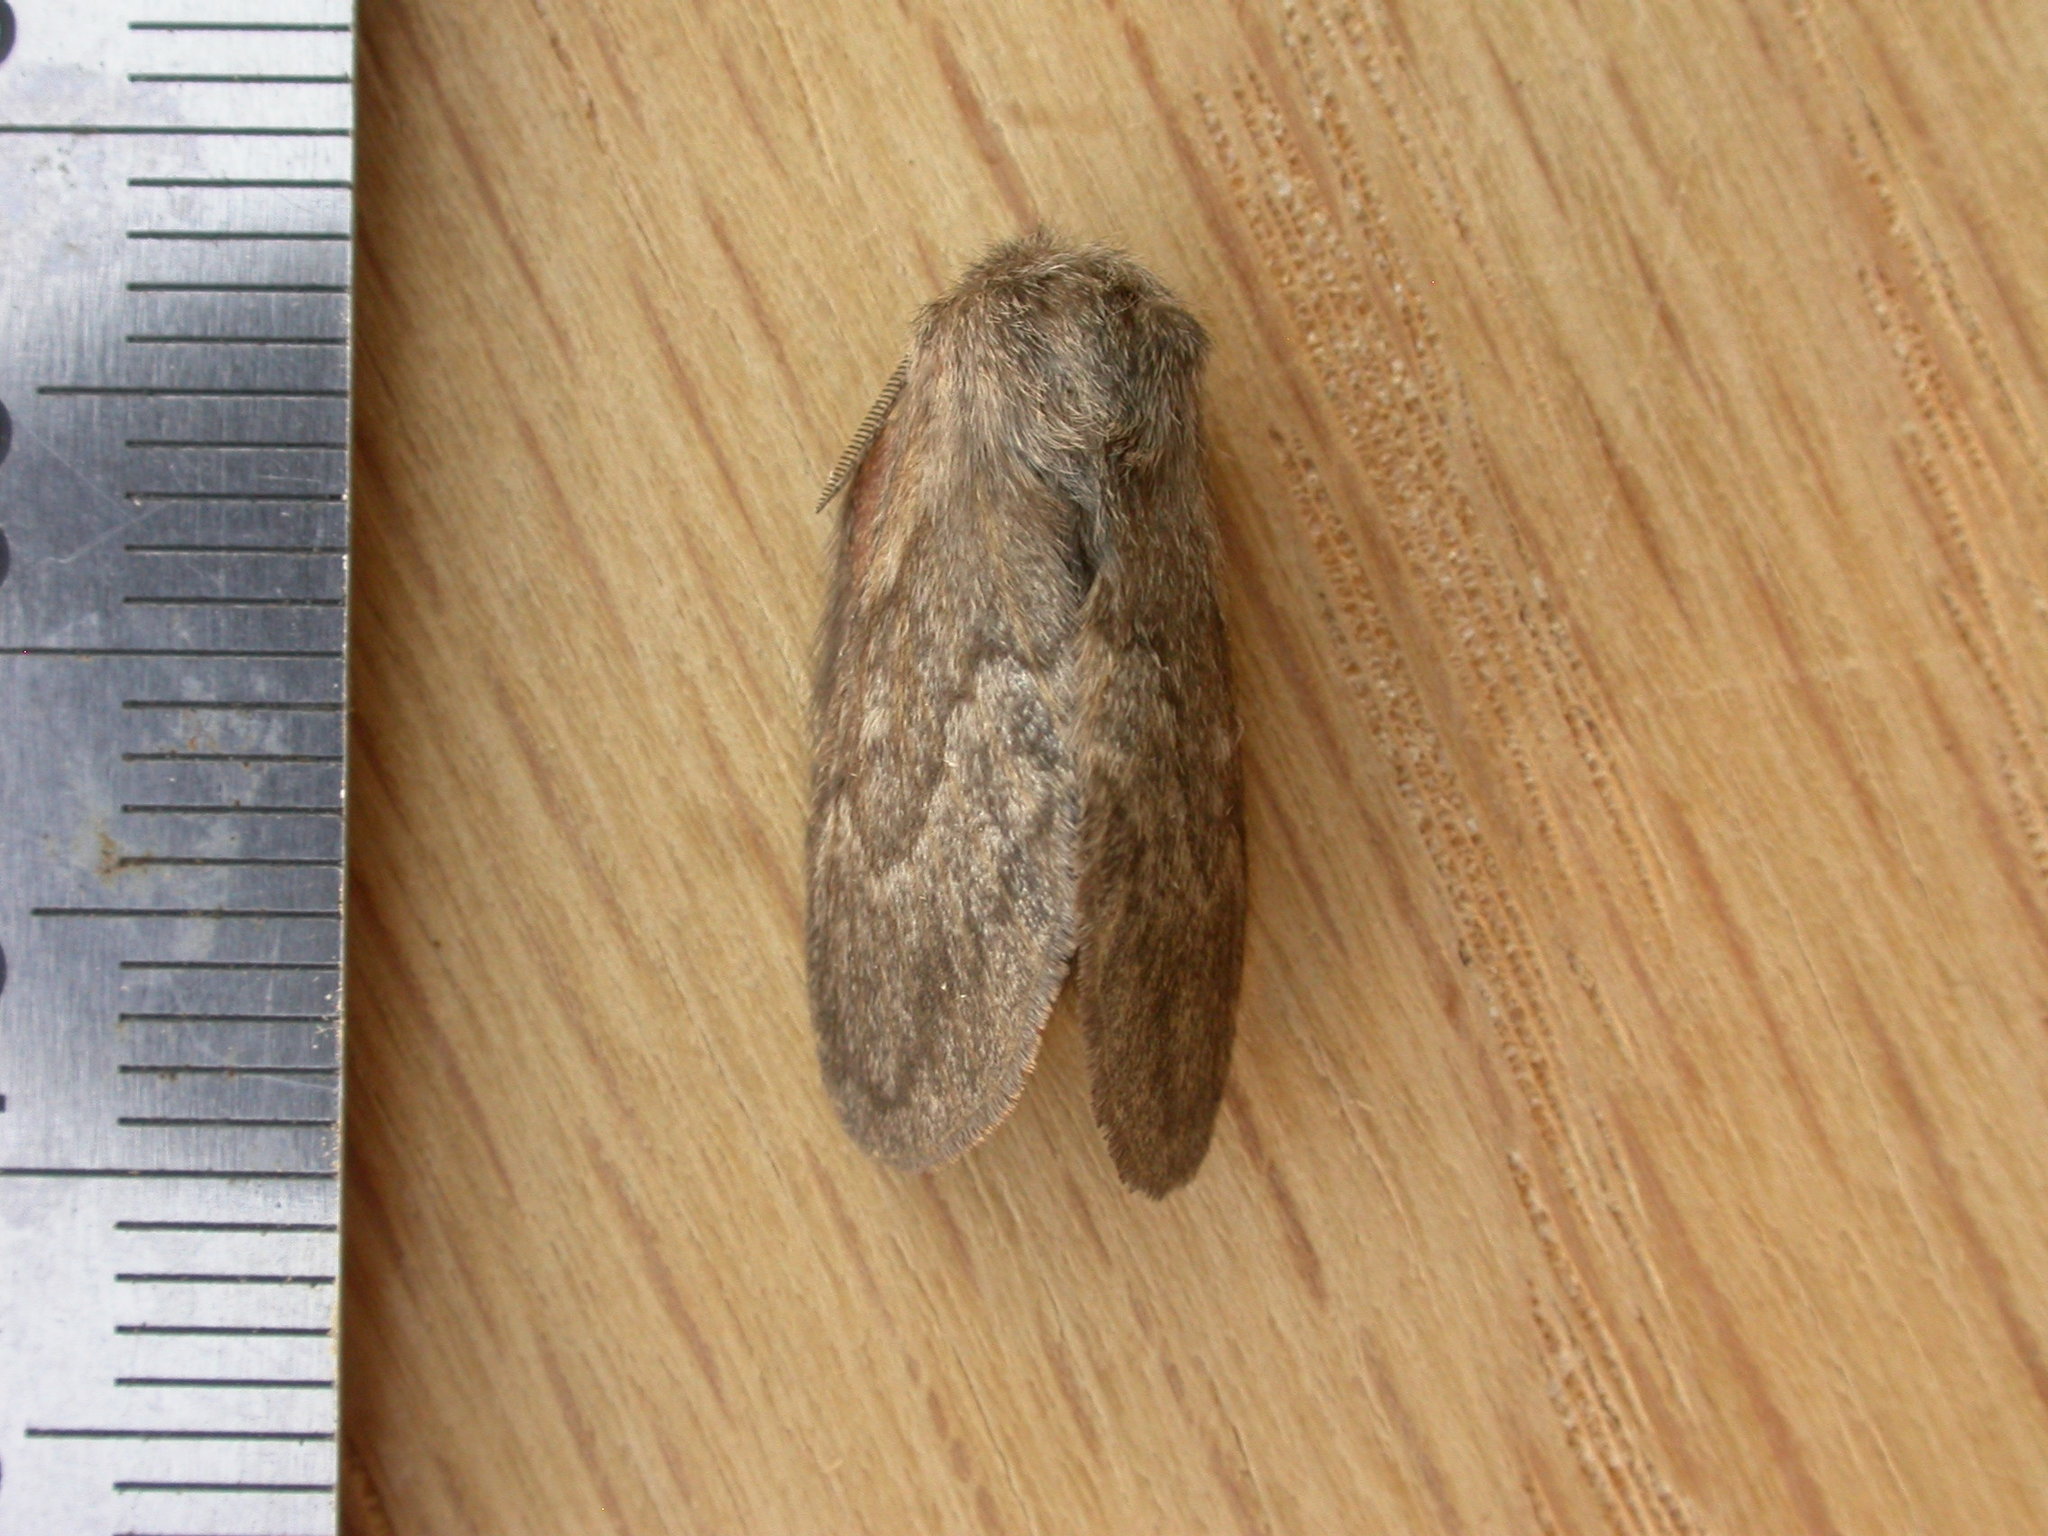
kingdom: Animalia
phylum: Arthropoda
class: Insecta
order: Lepidoptera
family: Lasiocampidae
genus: Pernattia
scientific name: Pernattia pusilla
